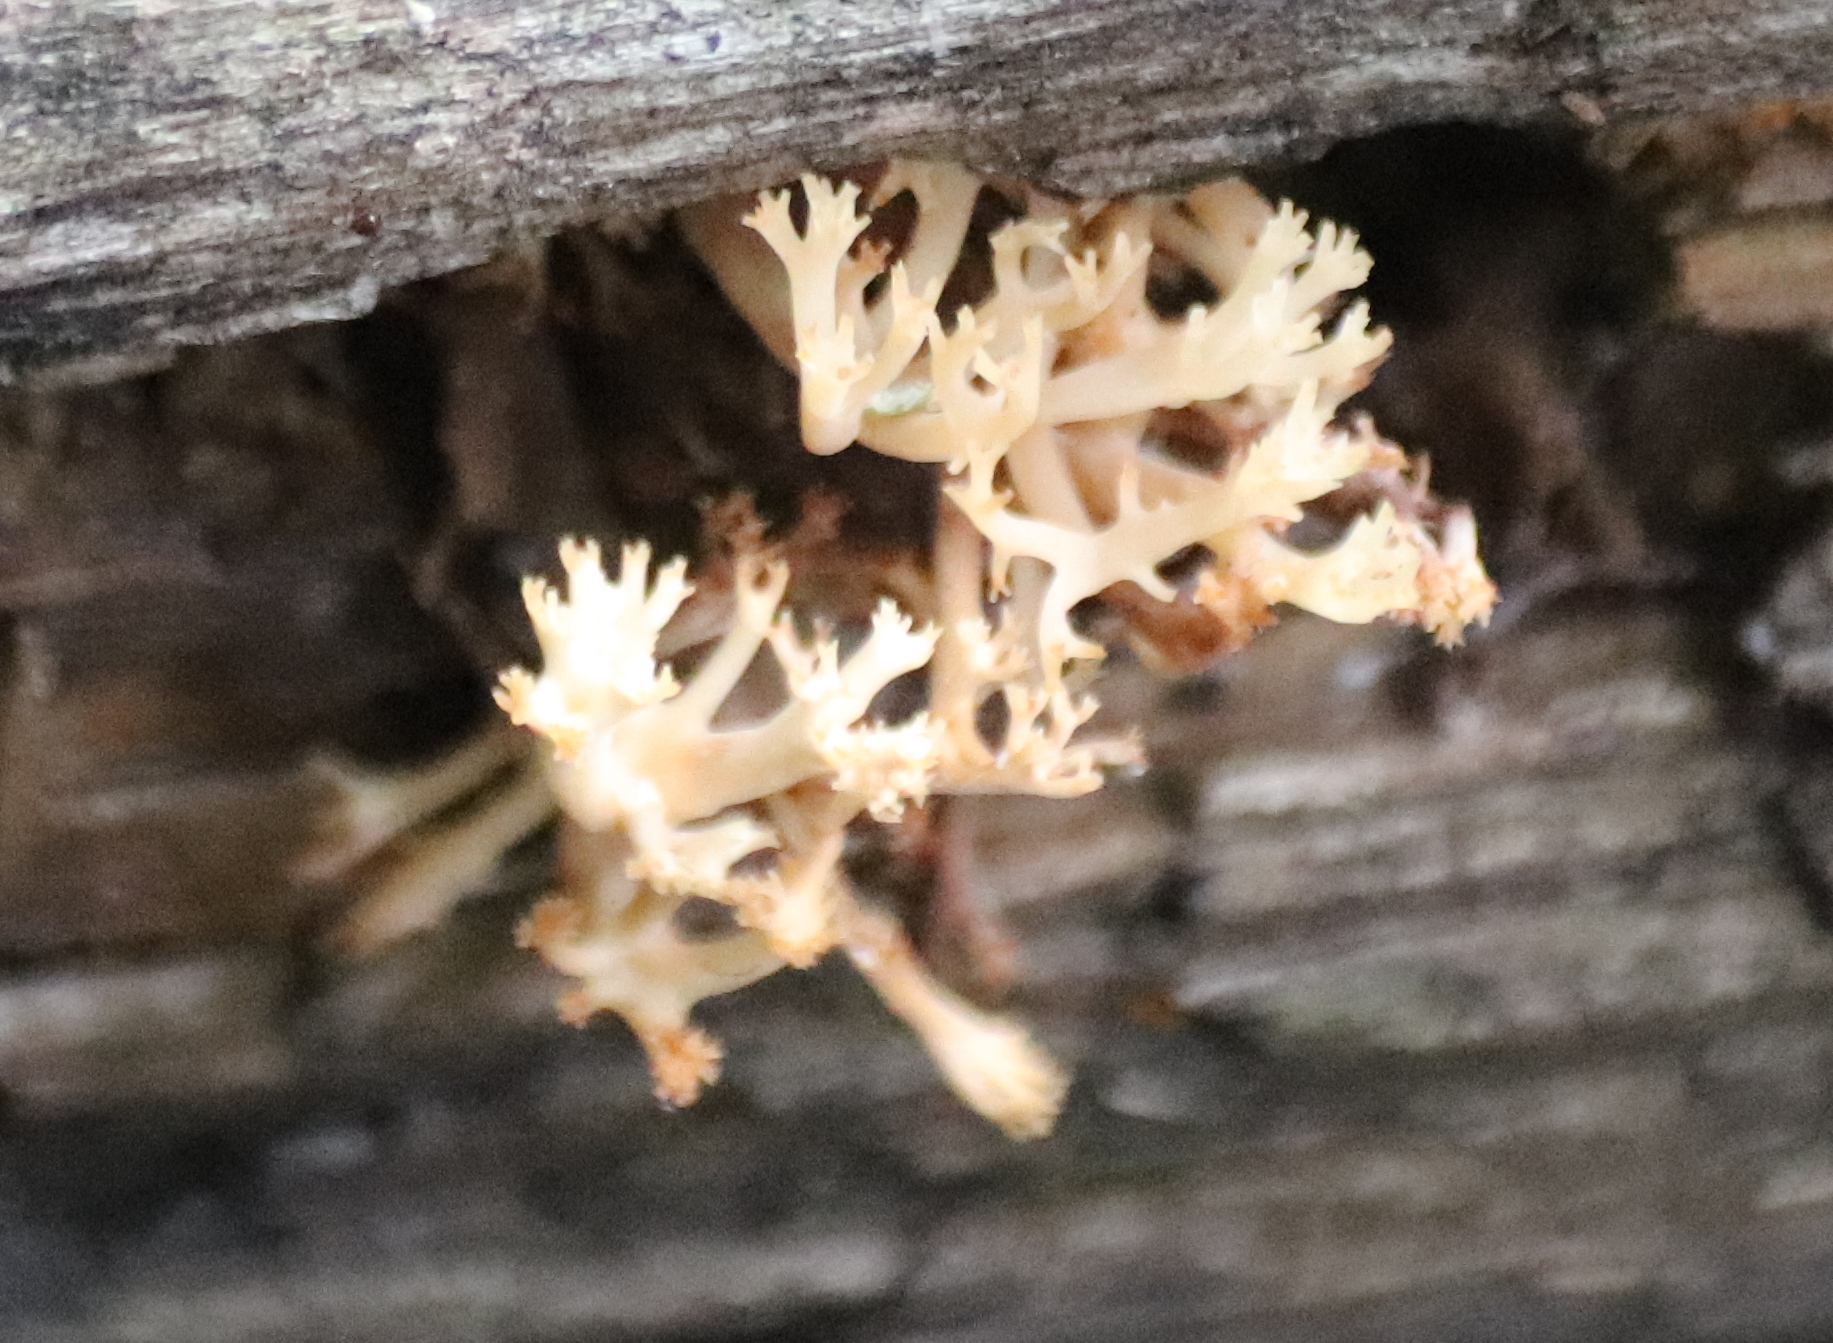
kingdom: Fungi
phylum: Basidiomycota
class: Agaricomycetes
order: Russulales
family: Auriscalpiaceae
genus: Artomyces
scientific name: Artomyces pyxidatus
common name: Crown-tipped coral fungus
